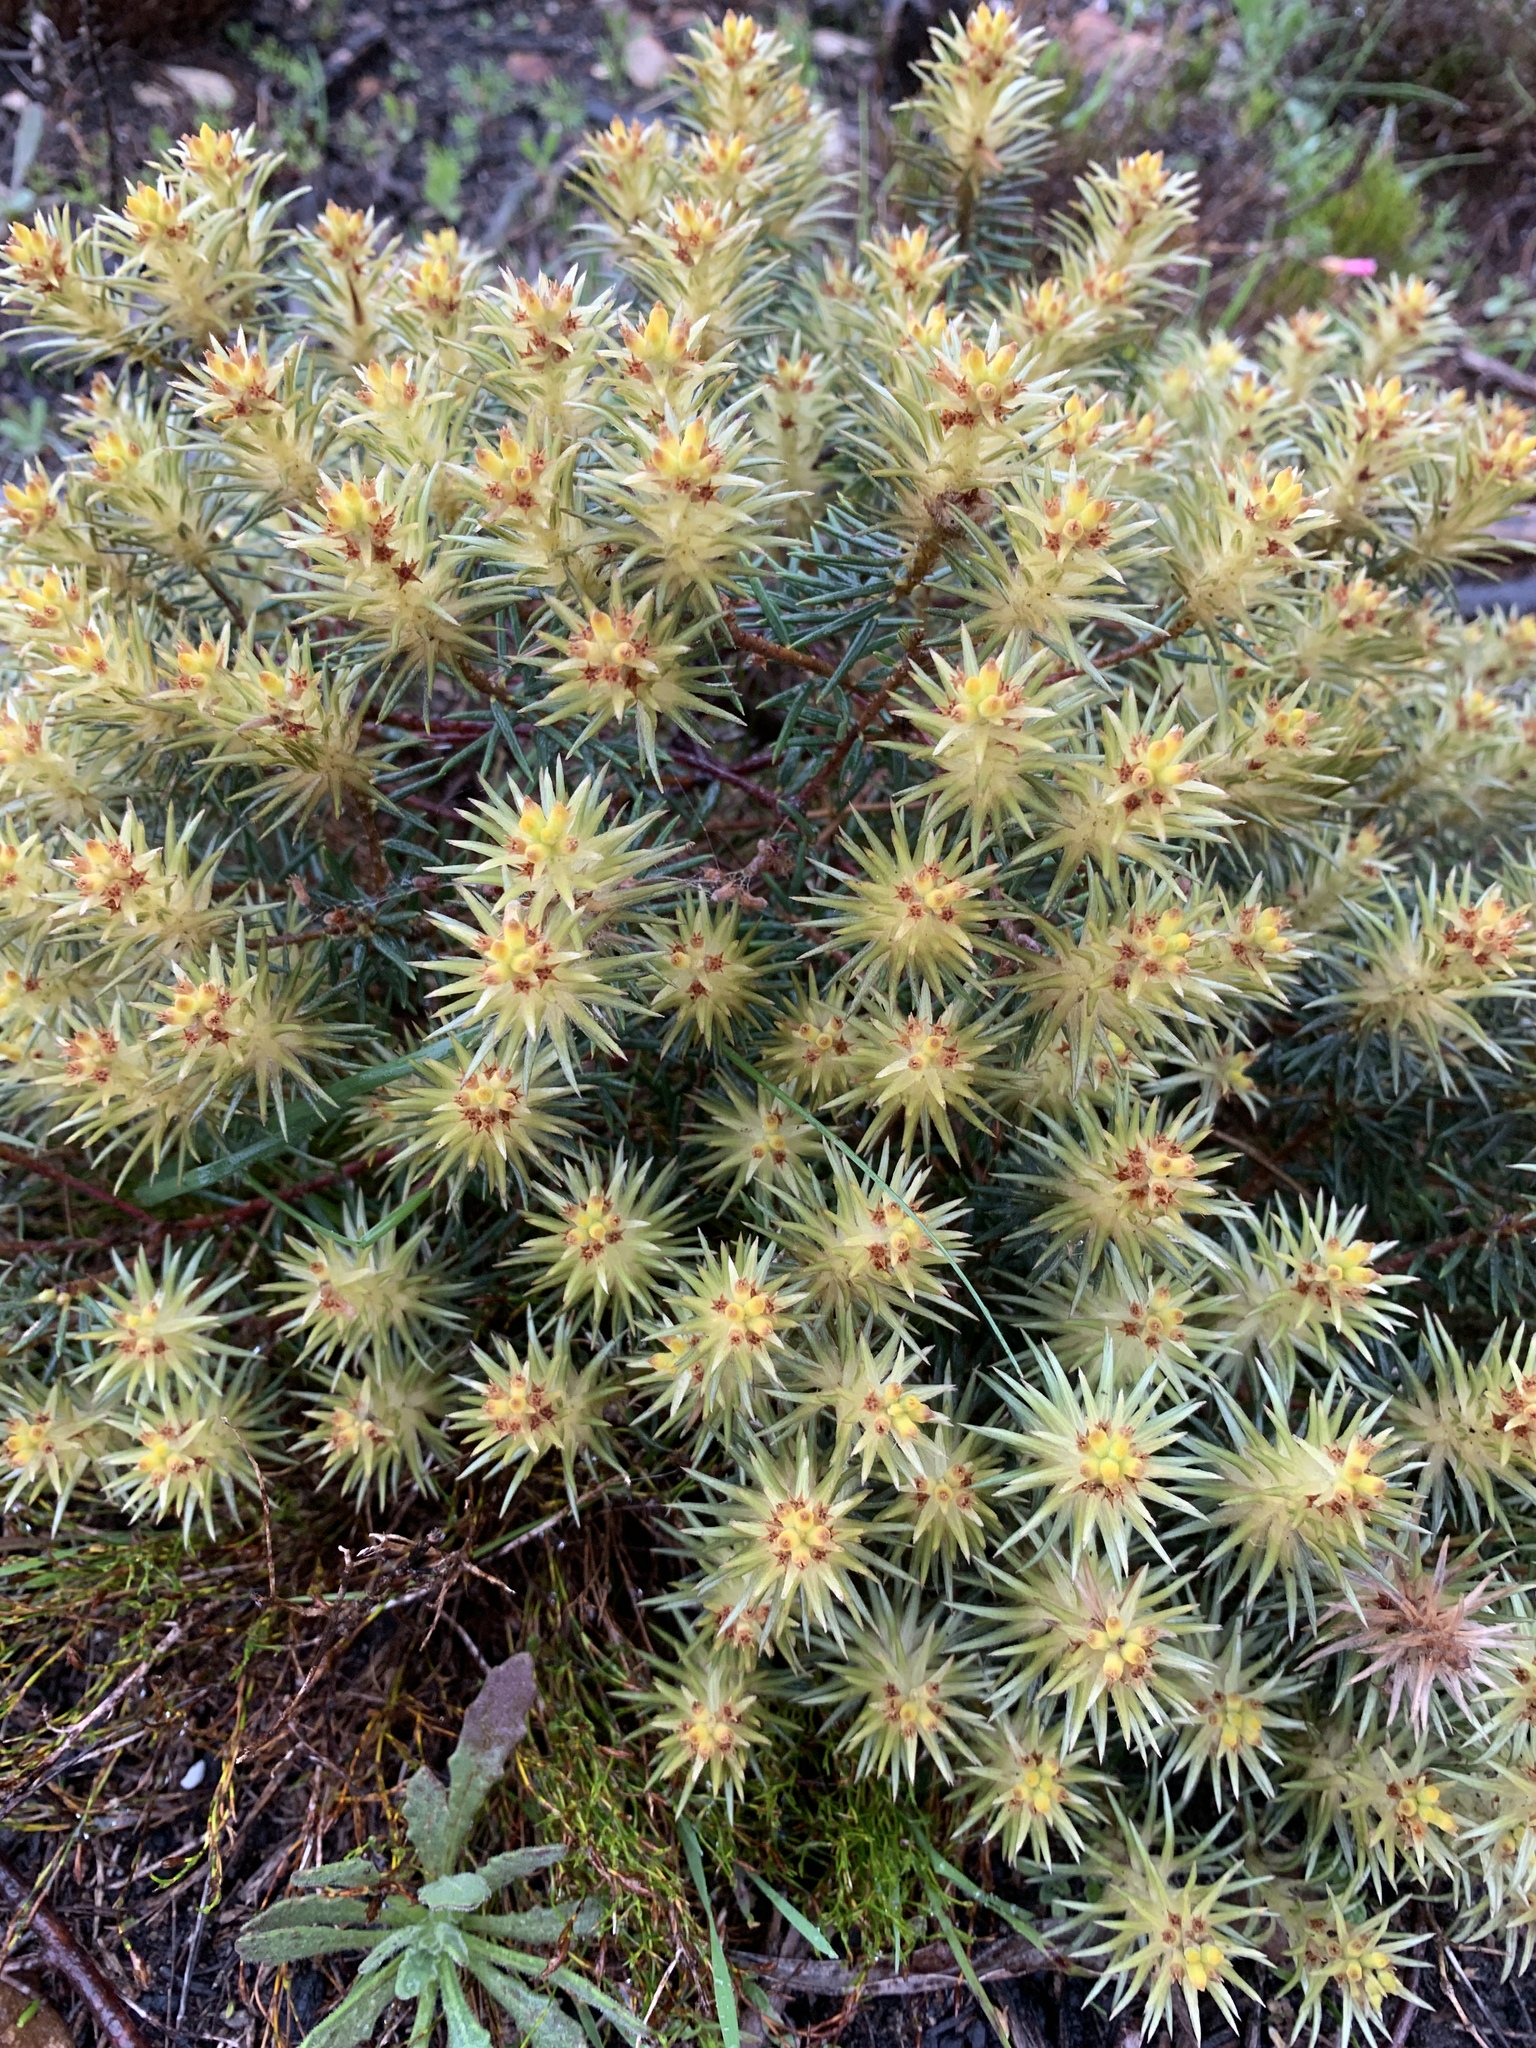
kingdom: Plantae
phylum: Tracheophyta
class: Magnoliopsida
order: Rosales
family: Rhamnaceae
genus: Phylica
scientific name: Phylica plumosa
